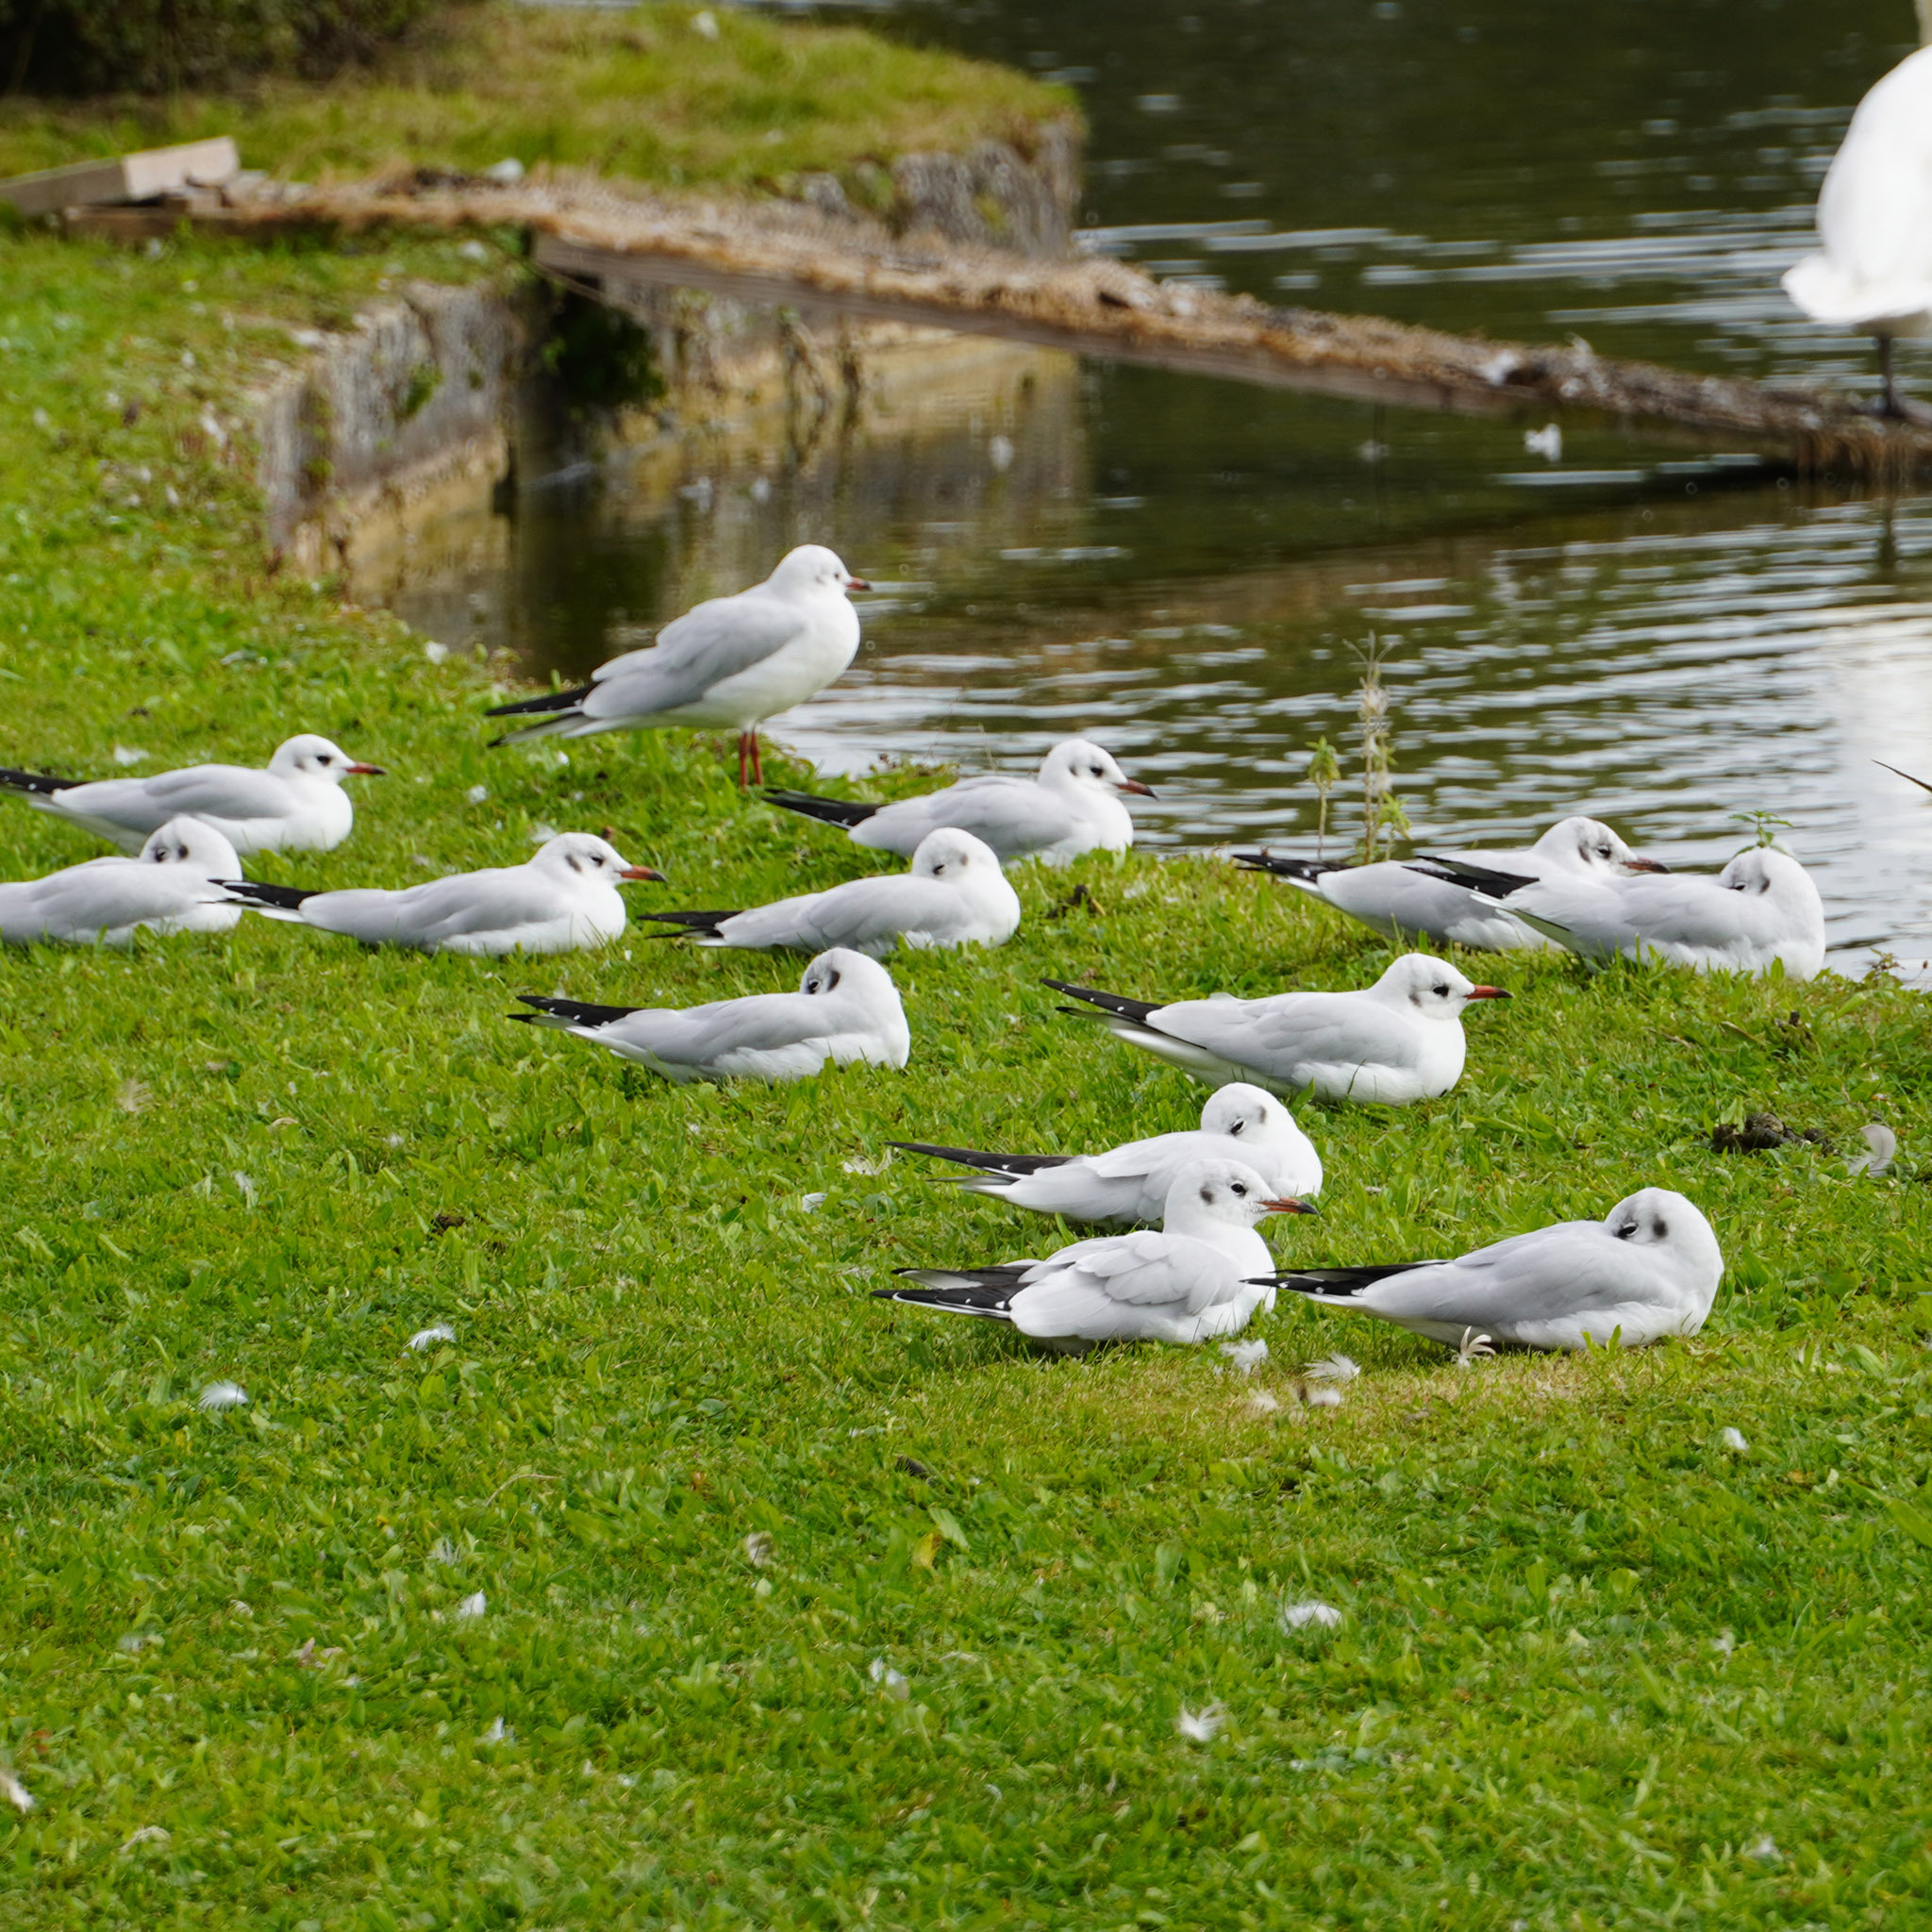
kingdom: Animalia
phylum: Chordata
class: Aves
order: Charadriiformes
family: Laridae
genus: Chroicocephalus
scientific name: Chroicocephalus ridibundus
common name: Black-headed gull
